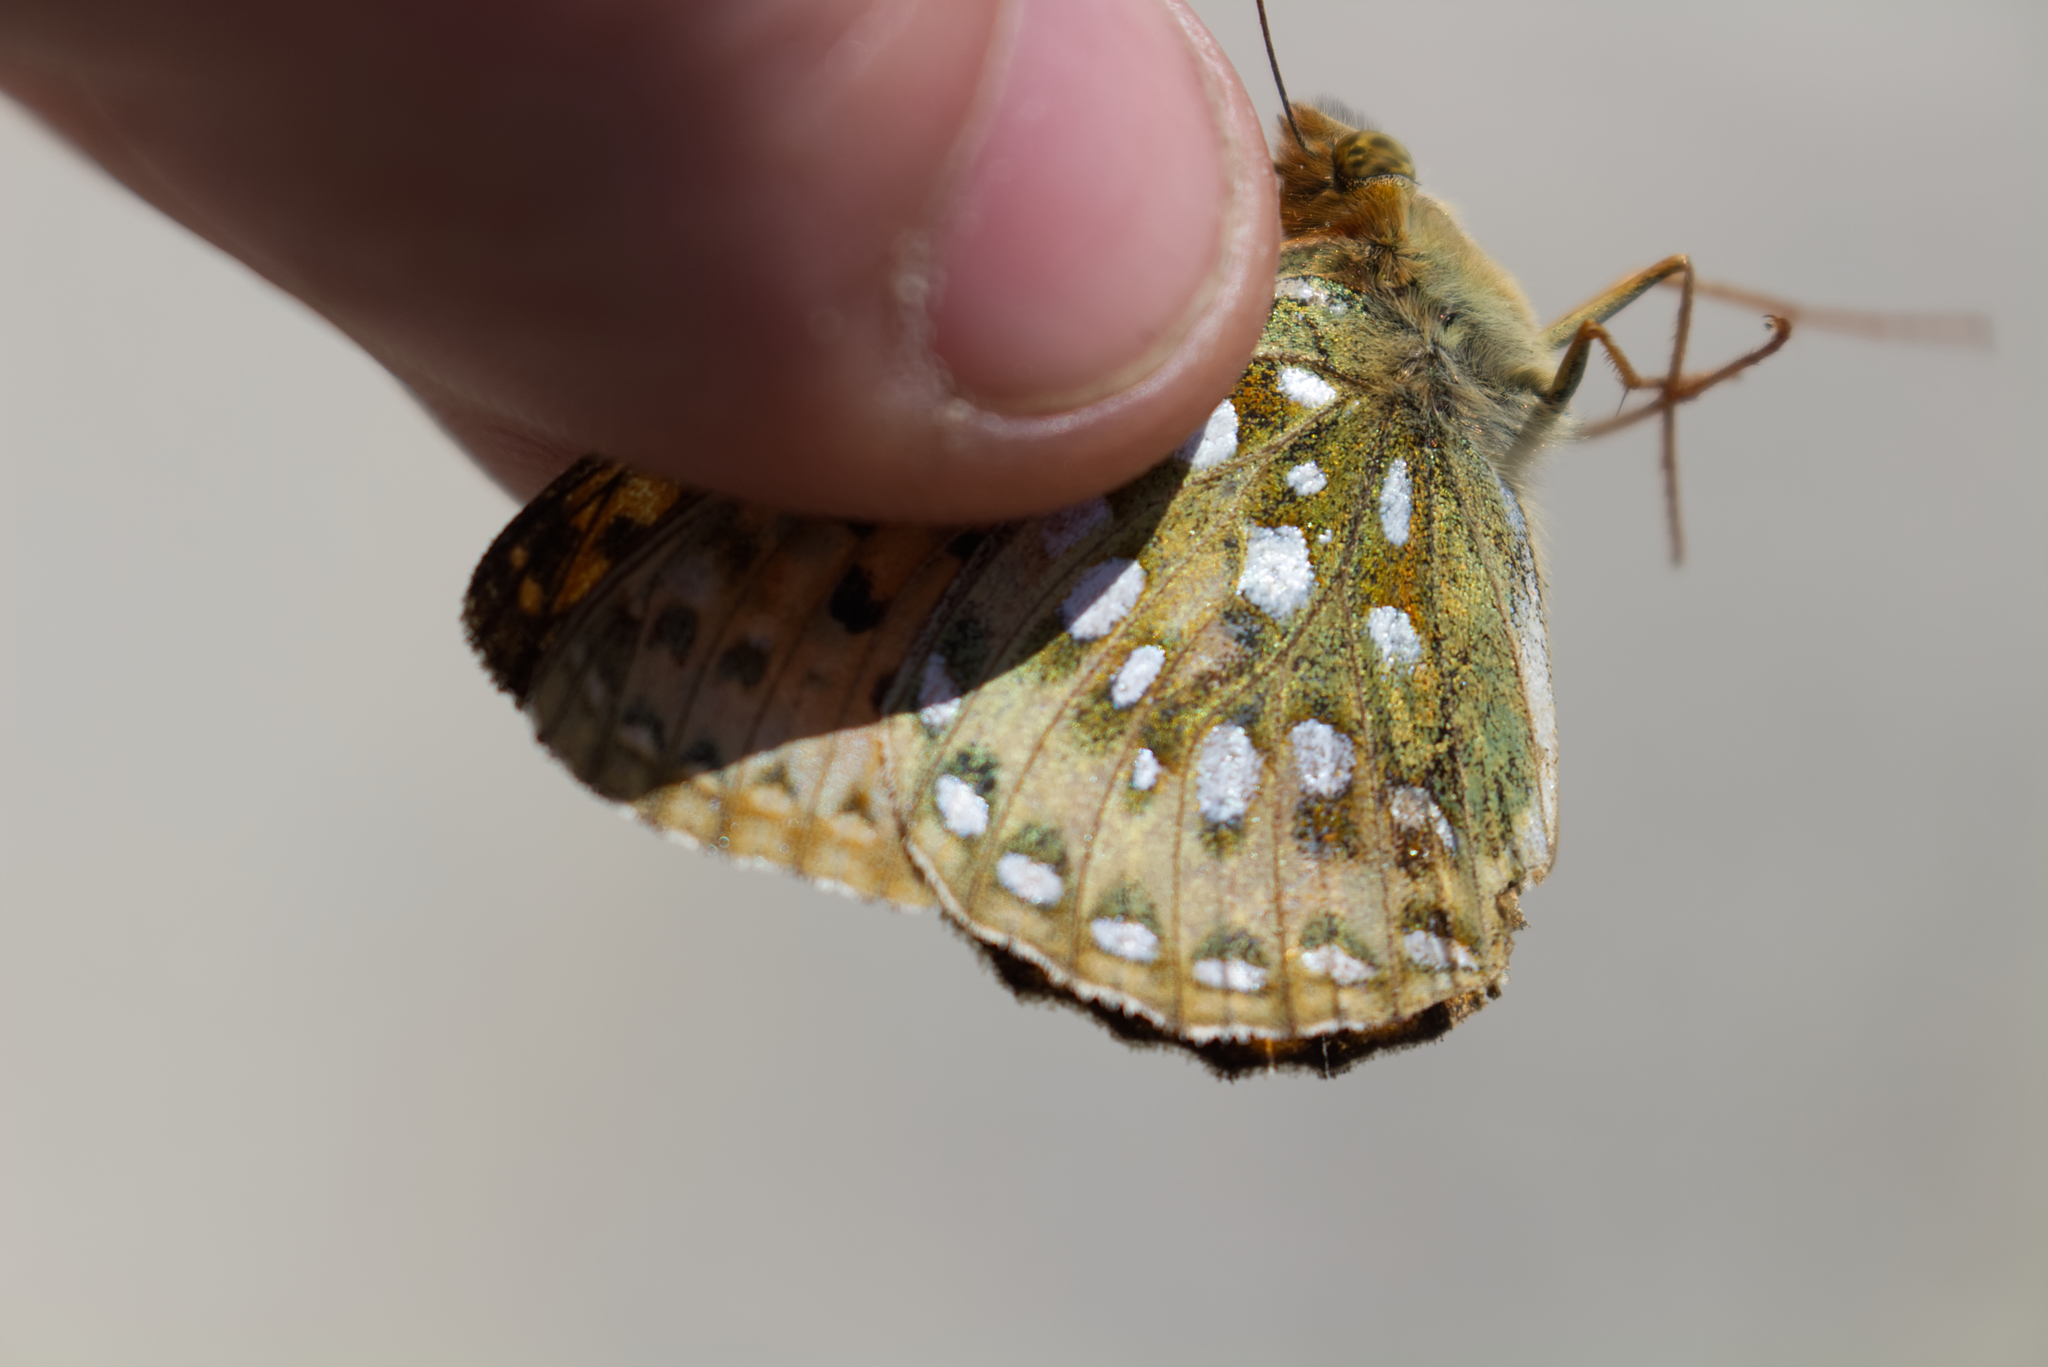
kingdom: Animalia
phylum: Arthropoda
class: Insecta
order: Lepidoptera
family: Nymphalidae
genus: Speyeria
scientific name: Speyeria aglaja
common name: Dark green fritillary
